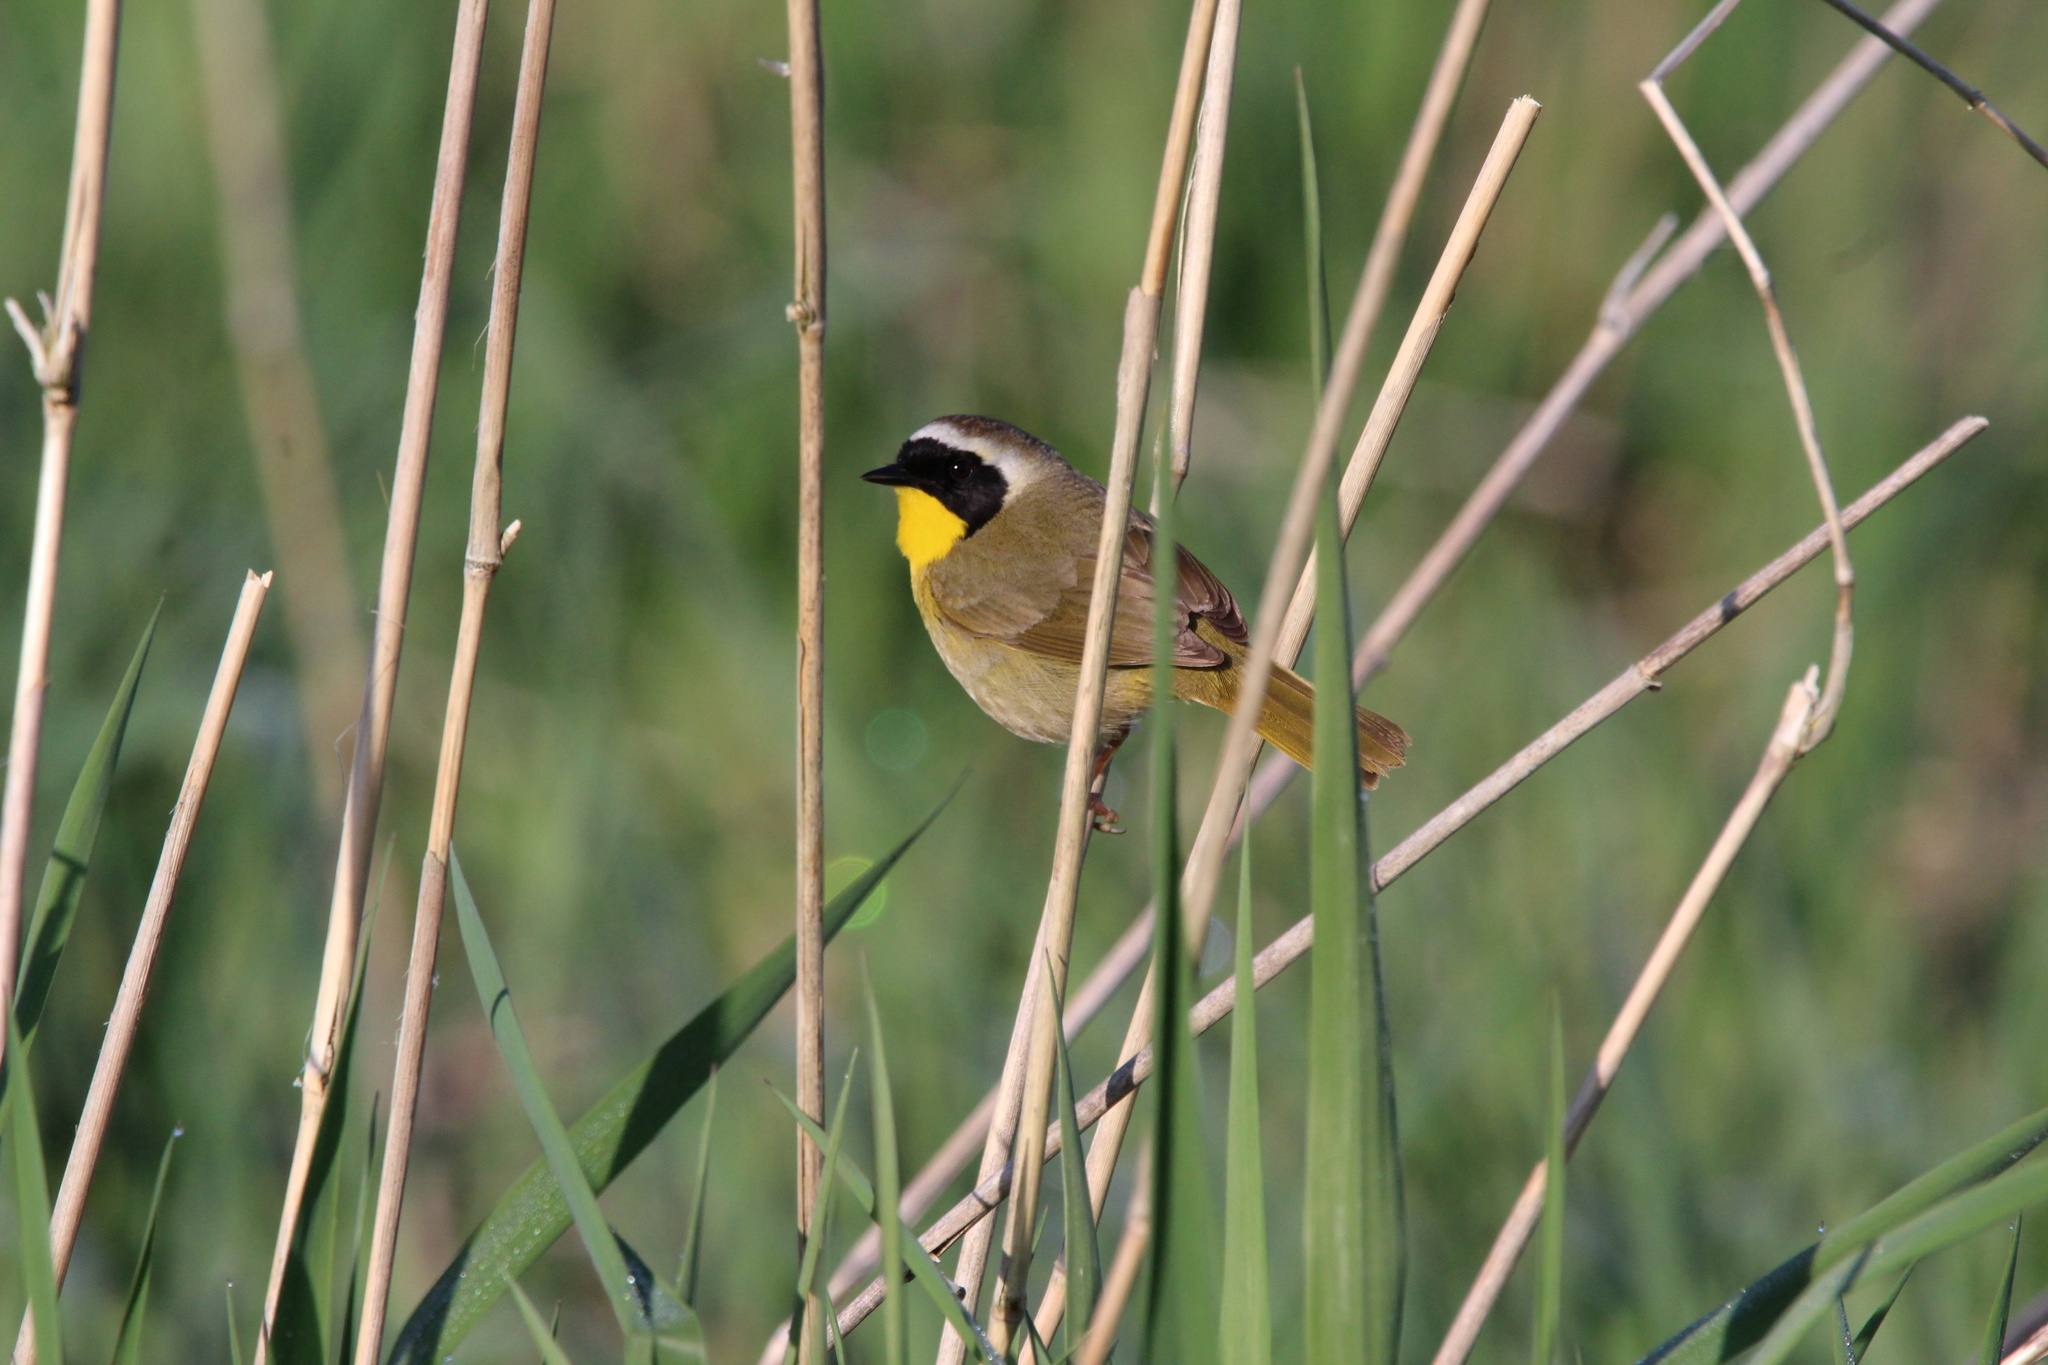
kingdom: Animalia
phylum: Chordata
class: Aves
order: Passeriformes
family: Parulidae
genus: Geothlypis
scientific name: Geothlypis trichas
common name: Common yellowthroat
